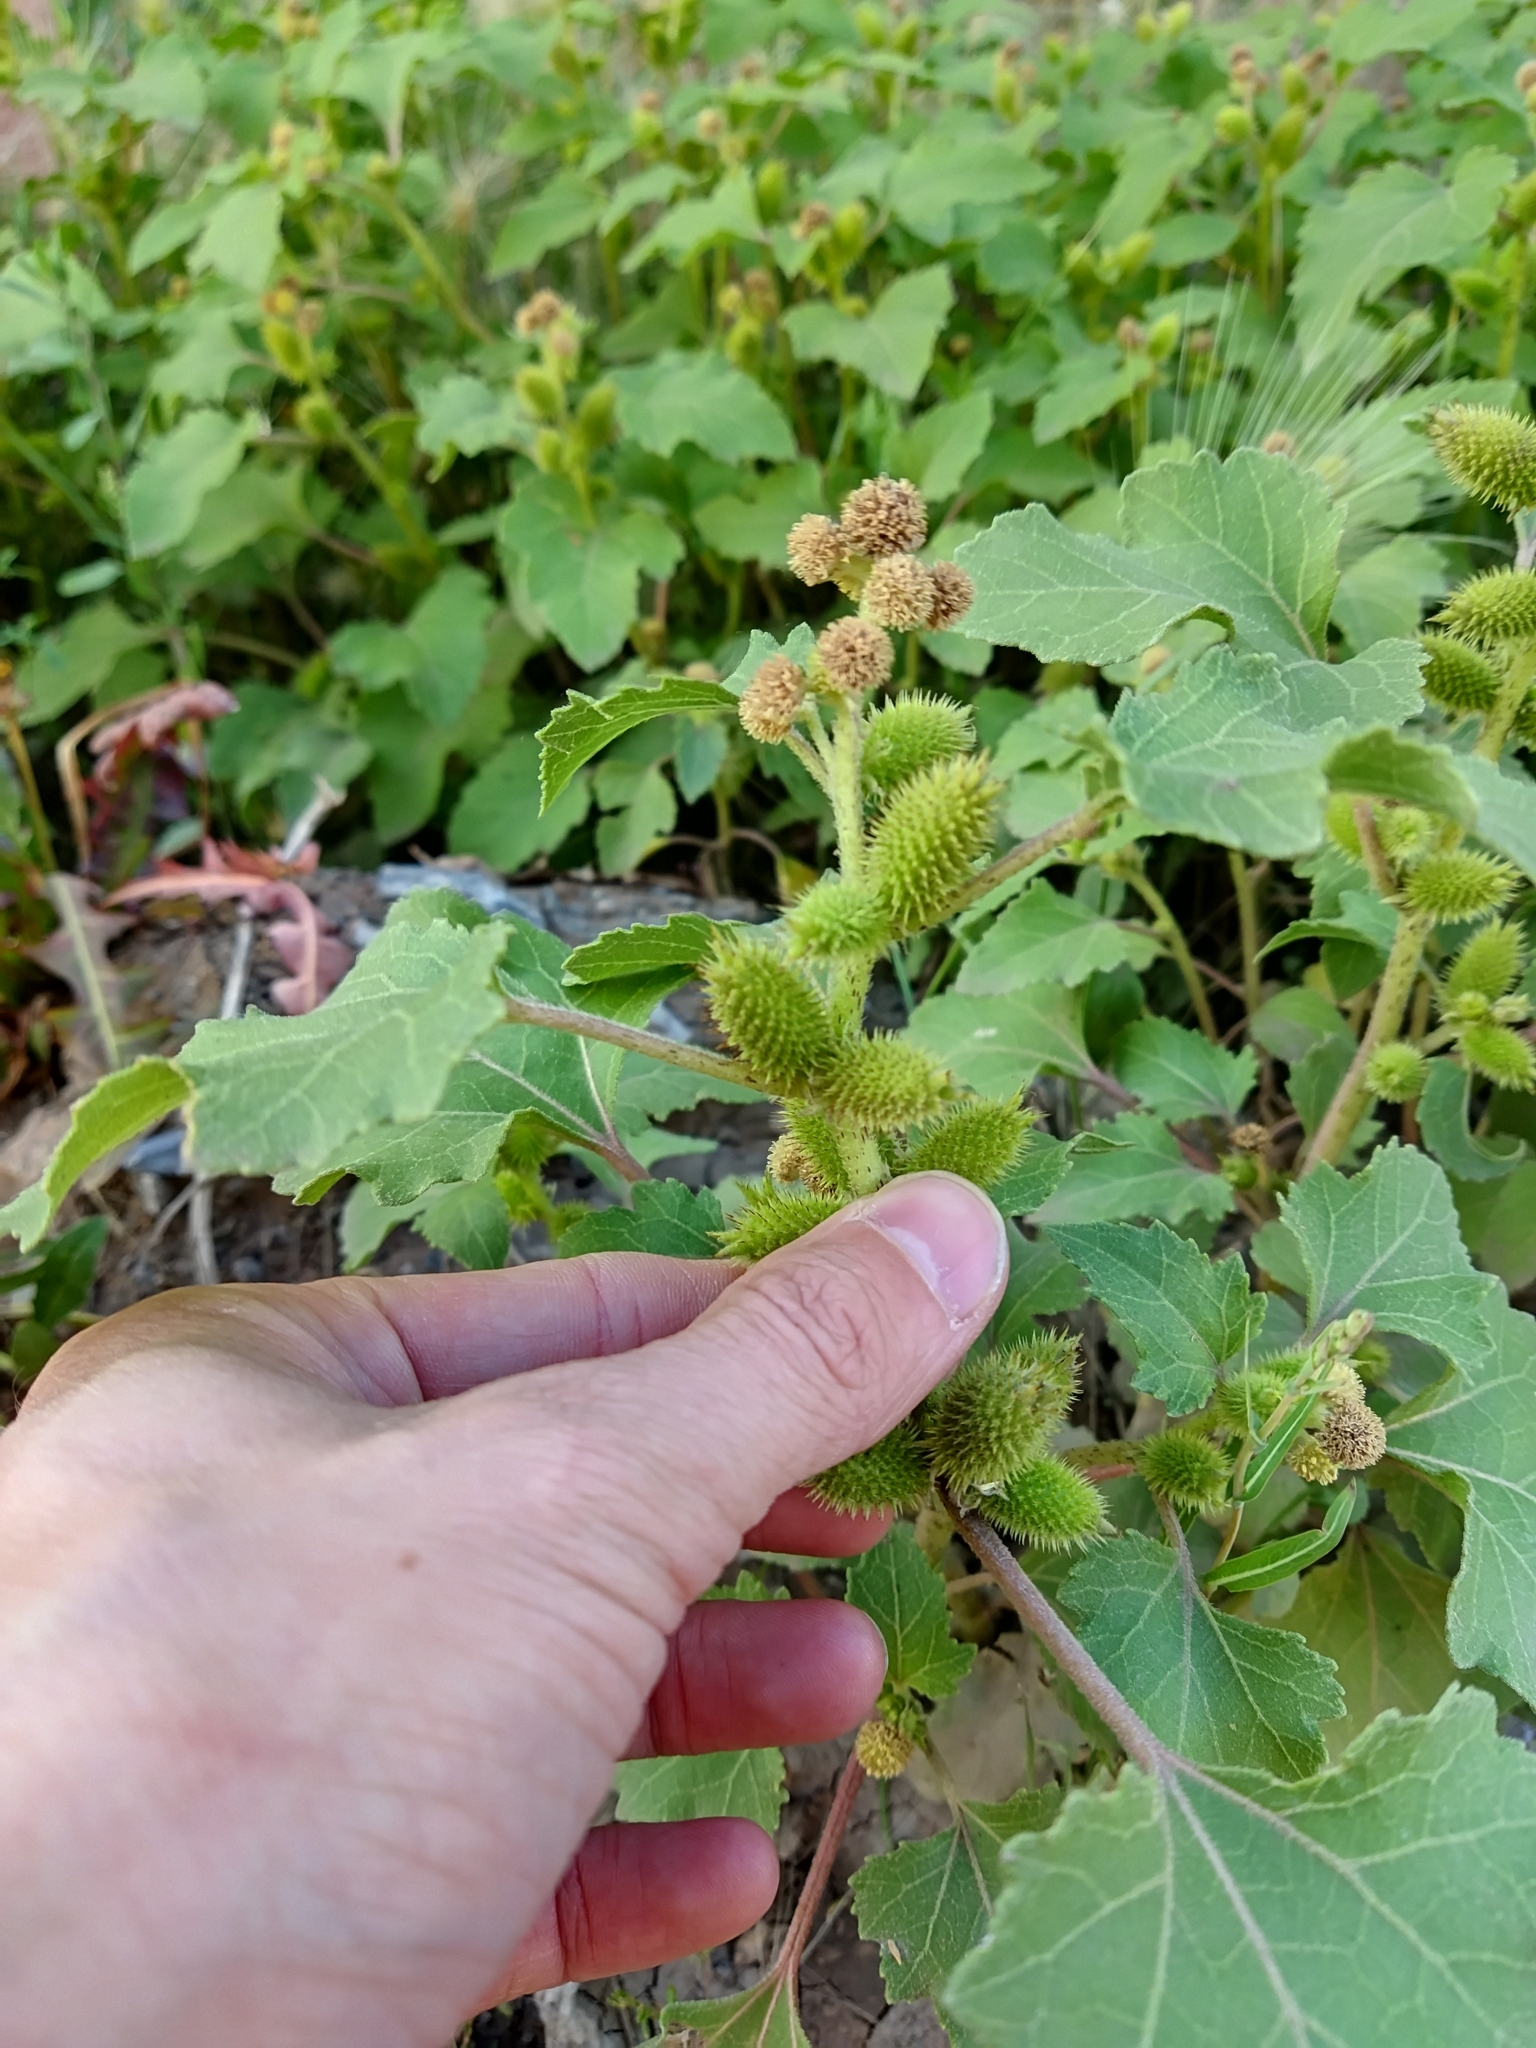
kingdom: Plantae
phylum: Tracheophyta
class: Magnoliopsida
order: Asterales
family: Asteraceae
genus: Xanthium
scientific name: Xanthium orientale
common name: Californian burr
